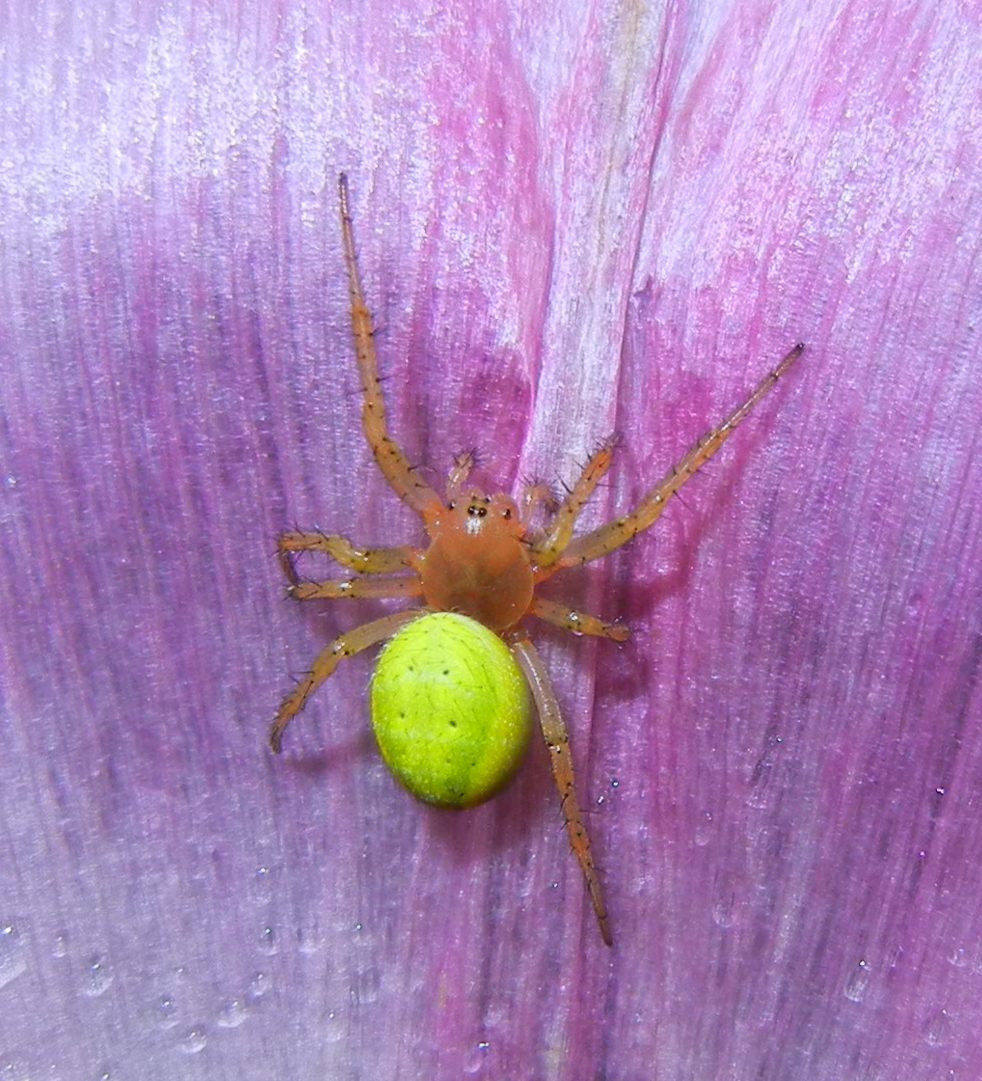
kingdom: Animalia
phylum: Arthropoda
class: Arachnida
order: Araneae
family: Araneidae
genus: Araniella
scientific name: Araniella cucurbitina
